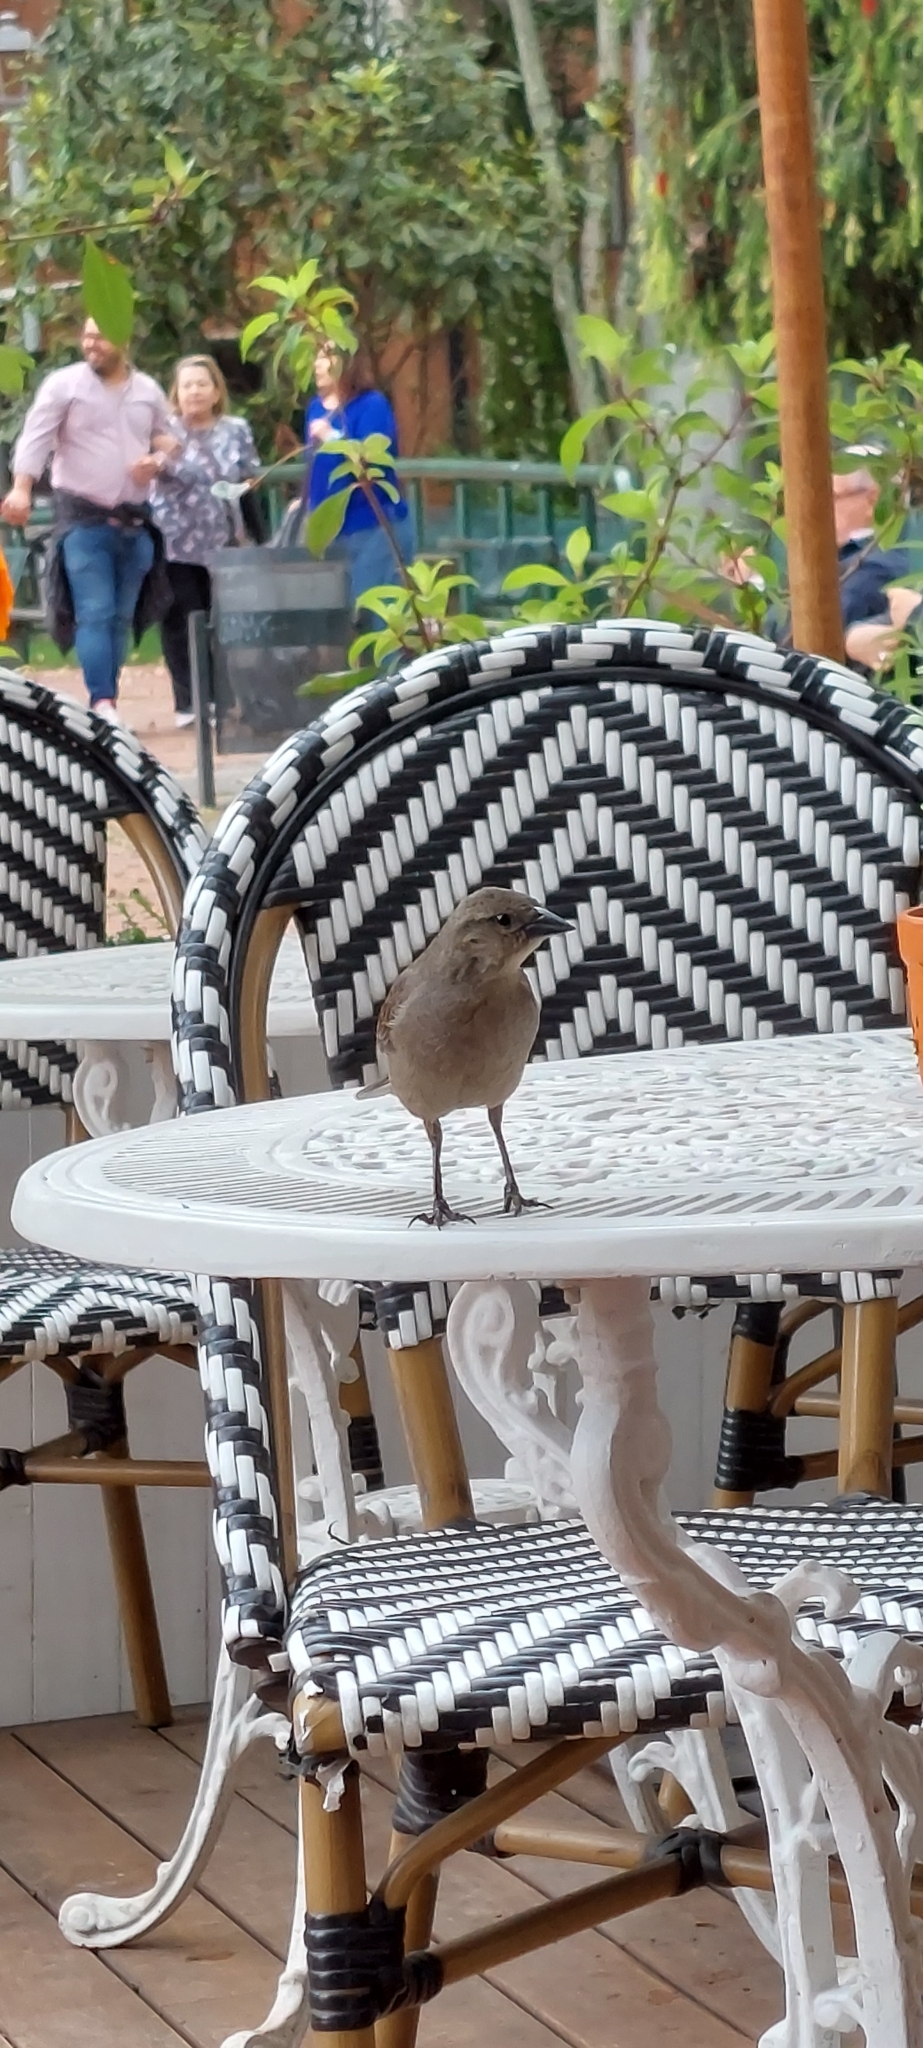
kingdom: Animalia
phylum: Chordata
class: Aves
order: Passeriformes
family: Icteridae
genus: Molothrus
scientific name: Molothrus bonariensis
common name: Shiny cowbird
